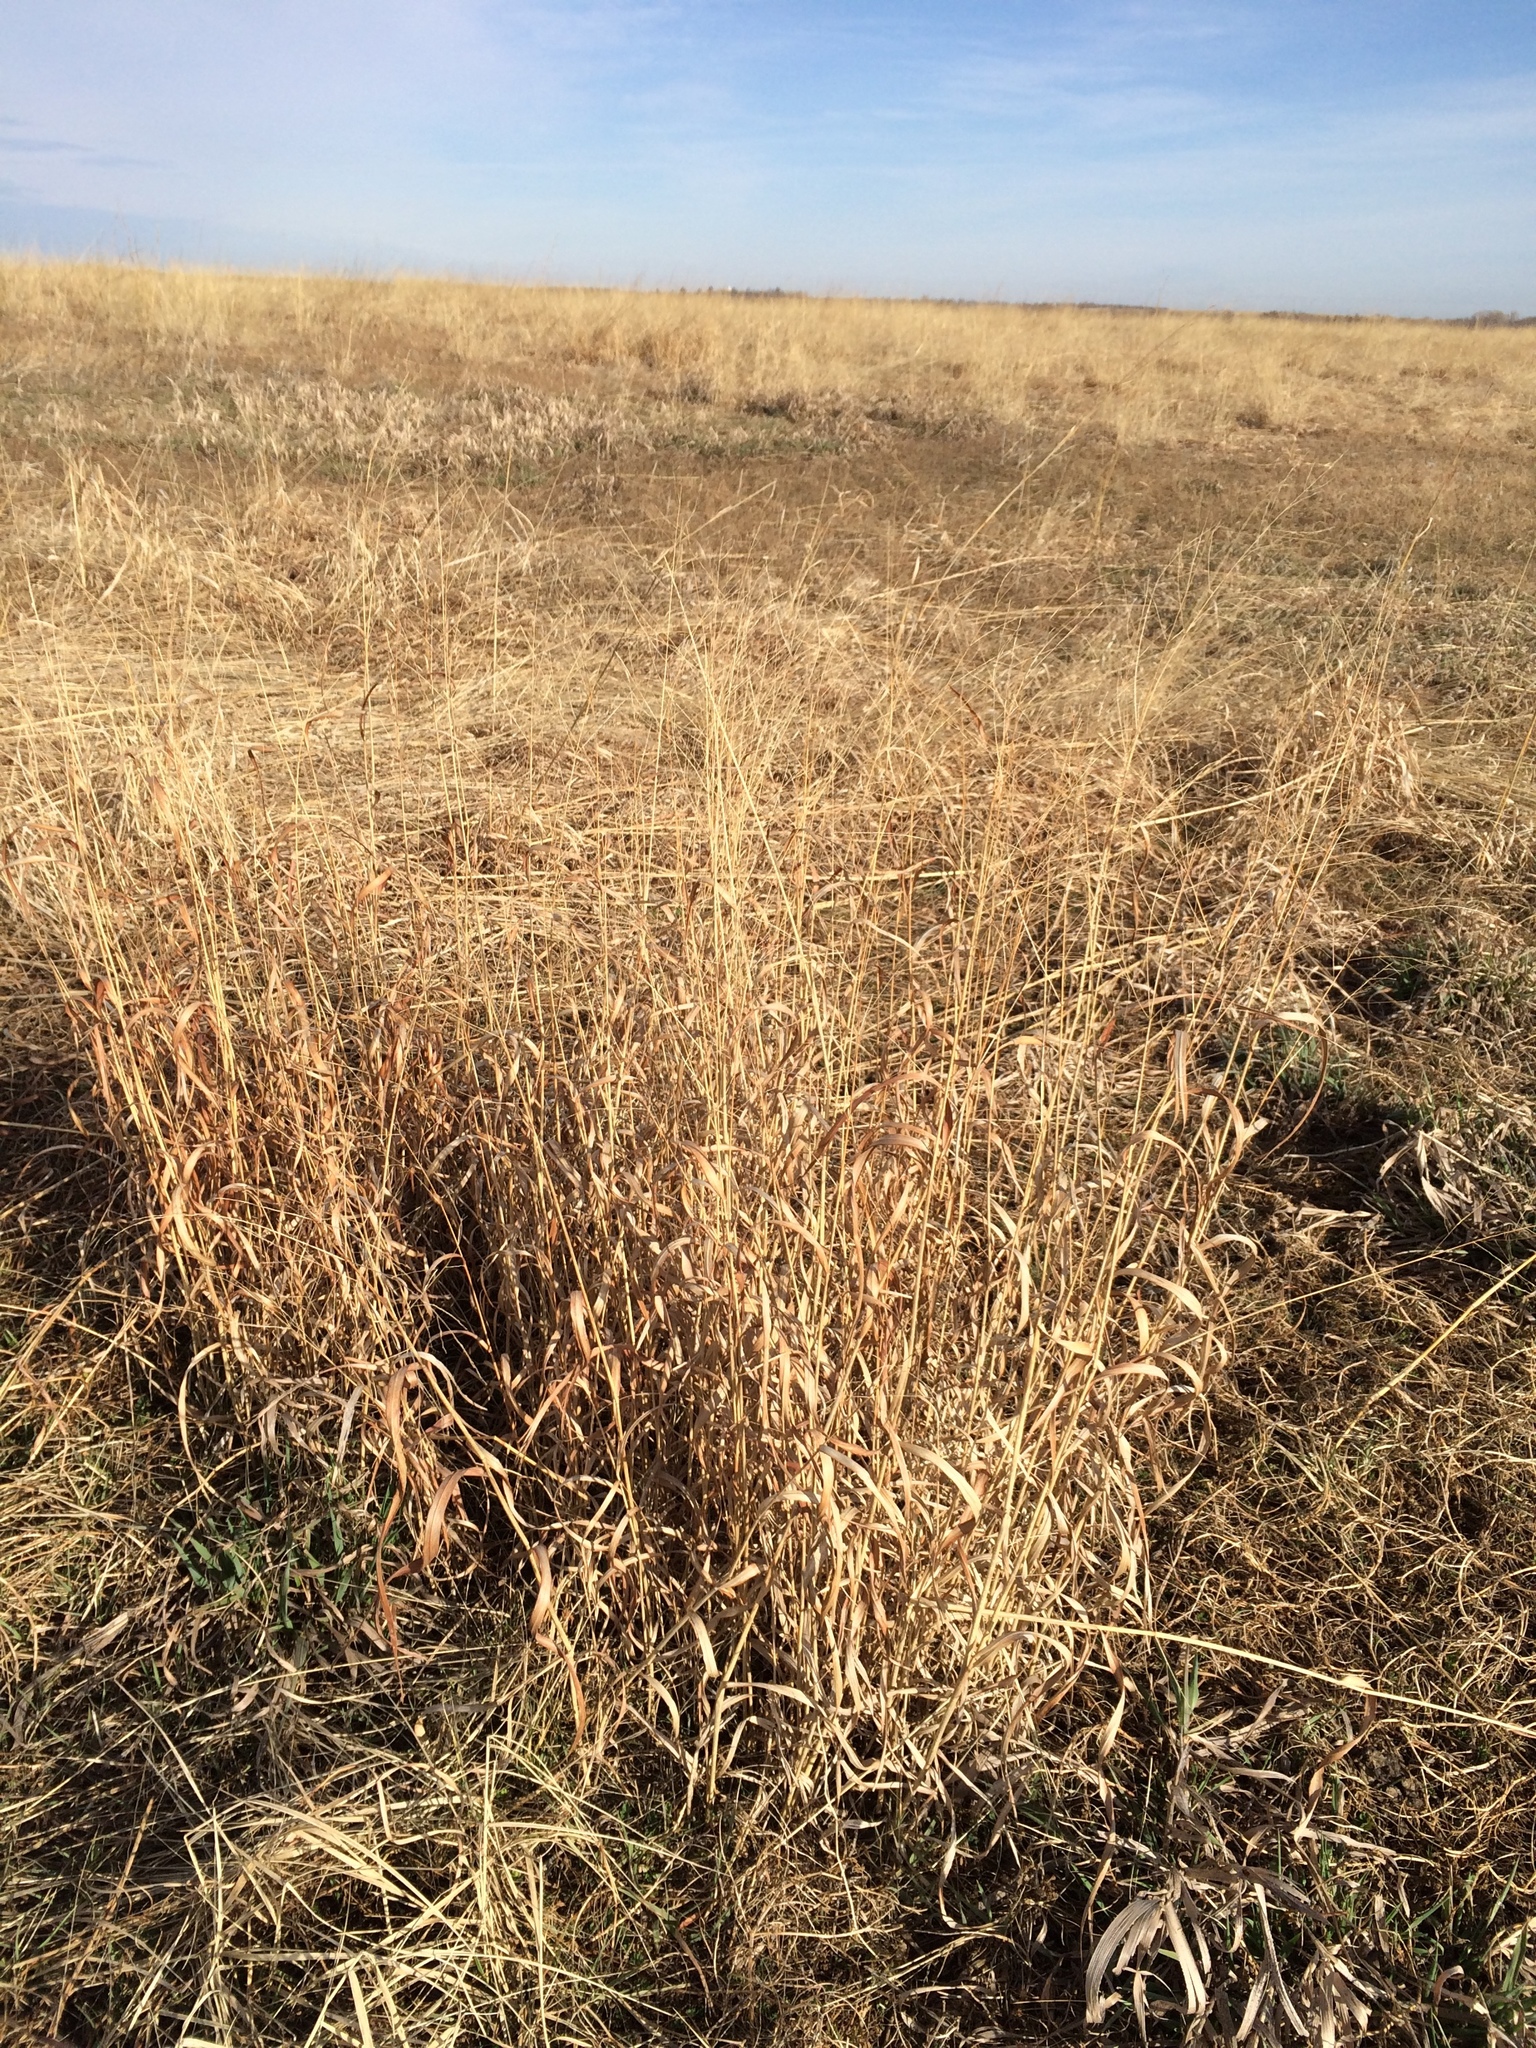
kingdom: Plantae
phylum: Tracheophyta
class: Liliopsida
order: Poales
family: Poaceae
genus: Panicum
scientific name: Panicum virgatum
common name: Switchgrass
